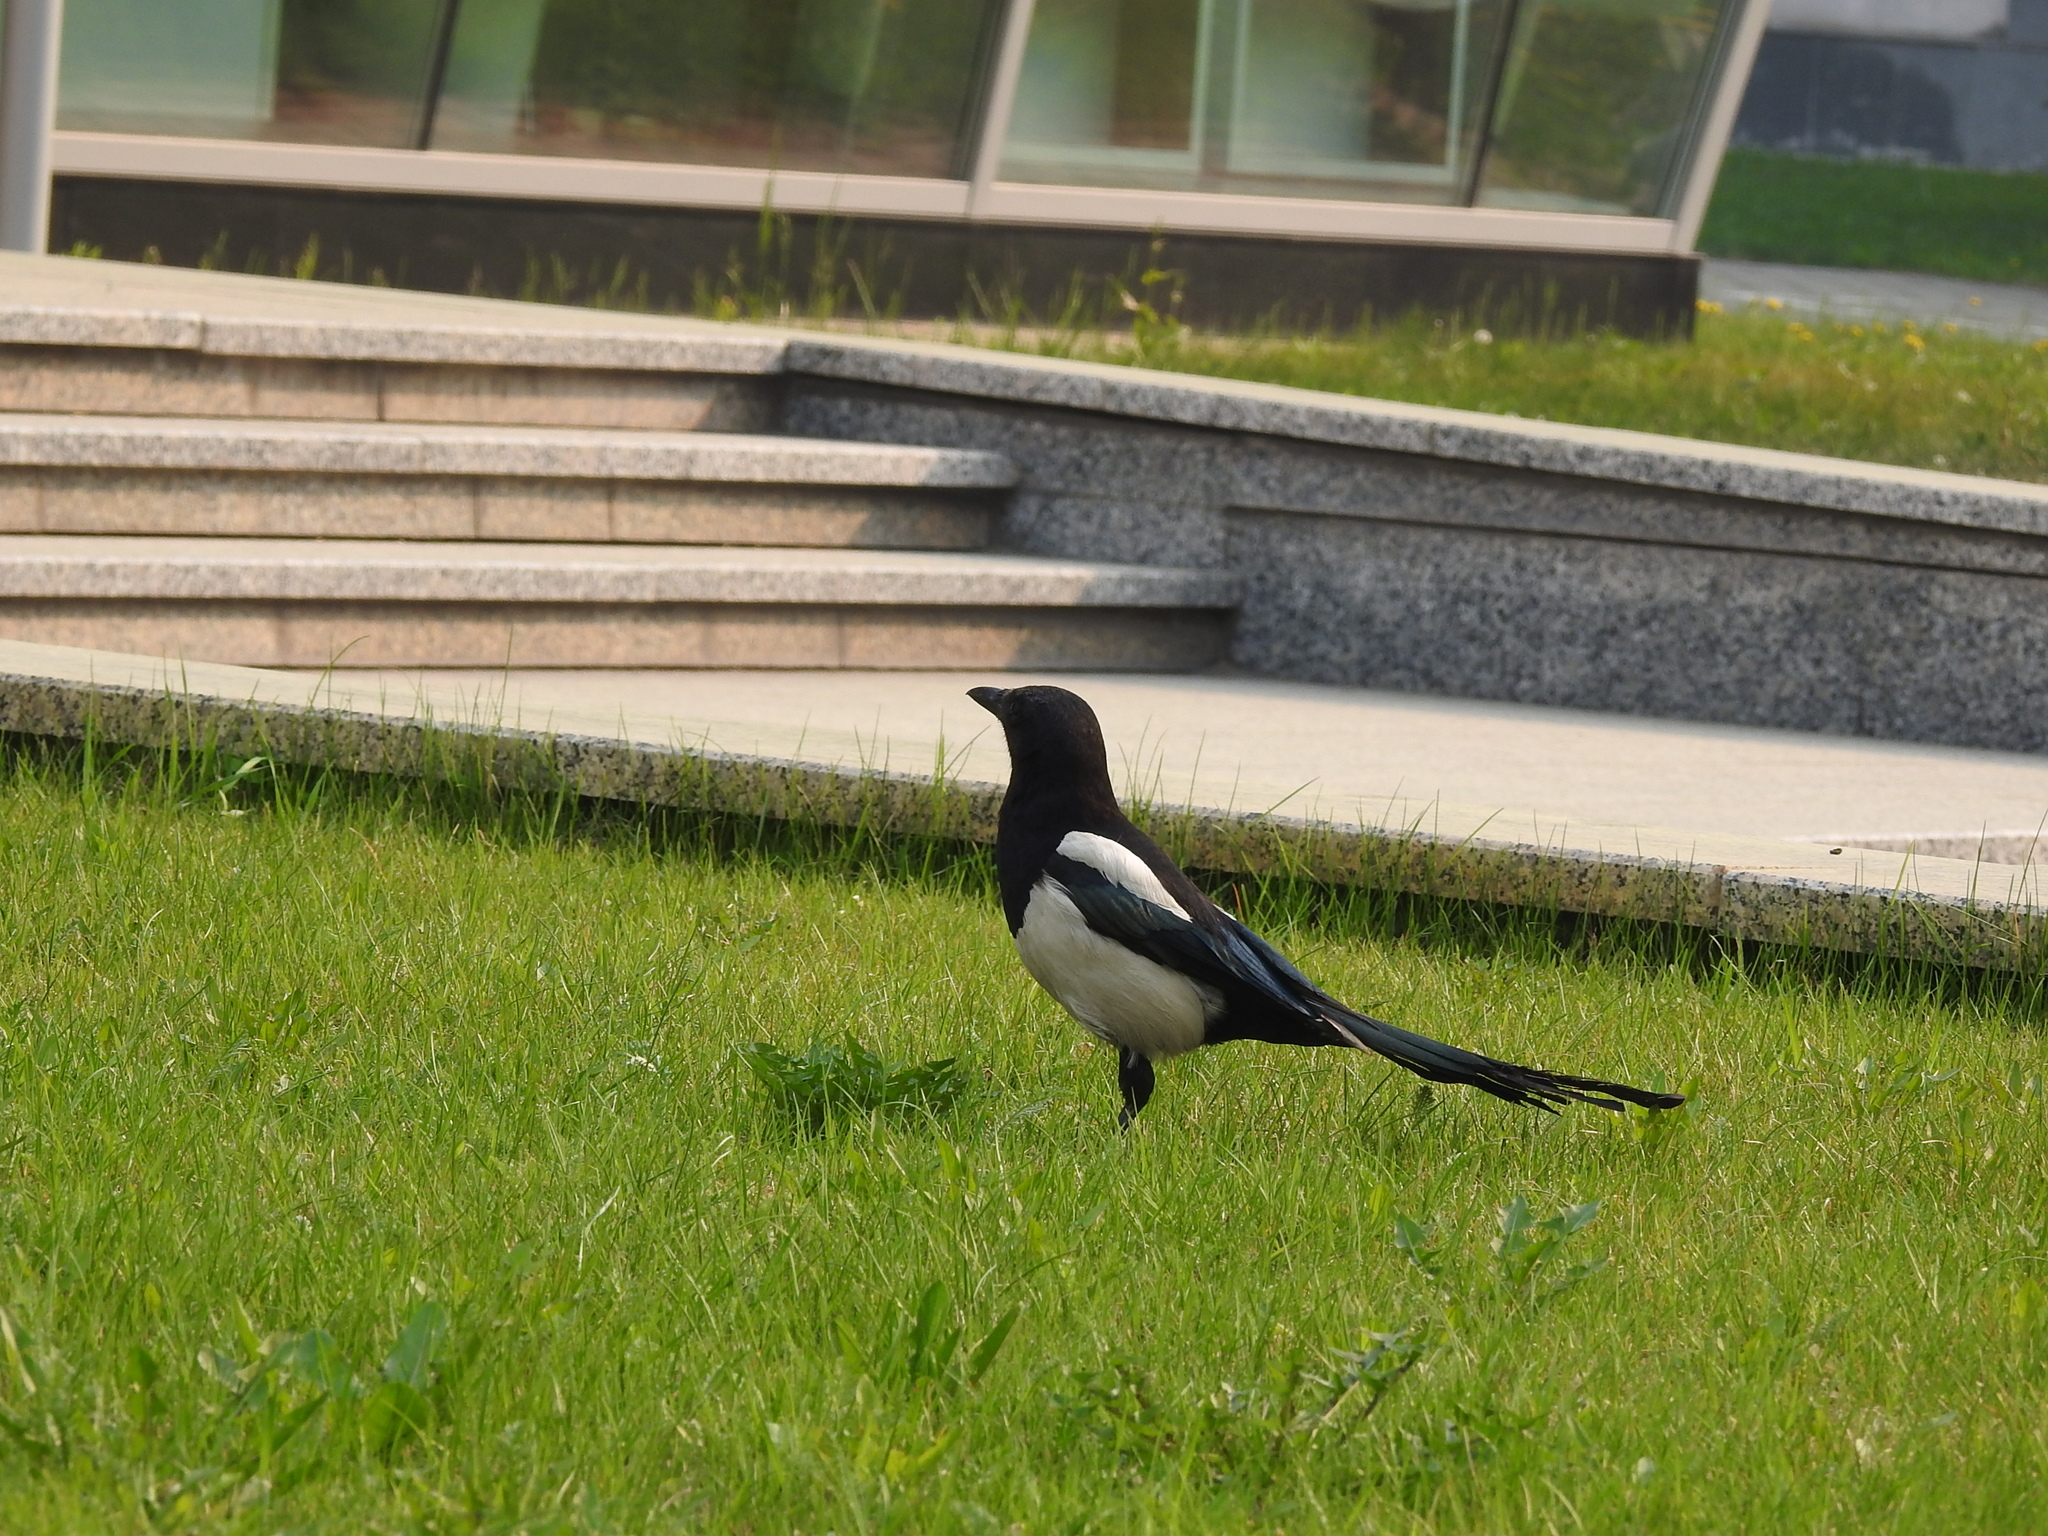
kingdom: Animalia
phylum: Chordata
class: Aves
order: Passeriformes
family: Corvidae
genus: Pica
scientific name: Pica pica
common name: Eurasian magpie
